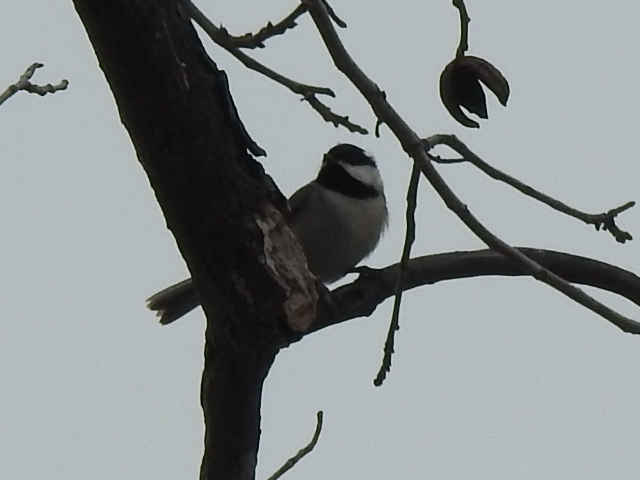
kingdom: Animalia
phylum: Chordata
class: Aves
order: Passeriformes
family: Paridae
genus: Poecile
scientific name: Poecile carolinensis
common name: Carolina chickadee
